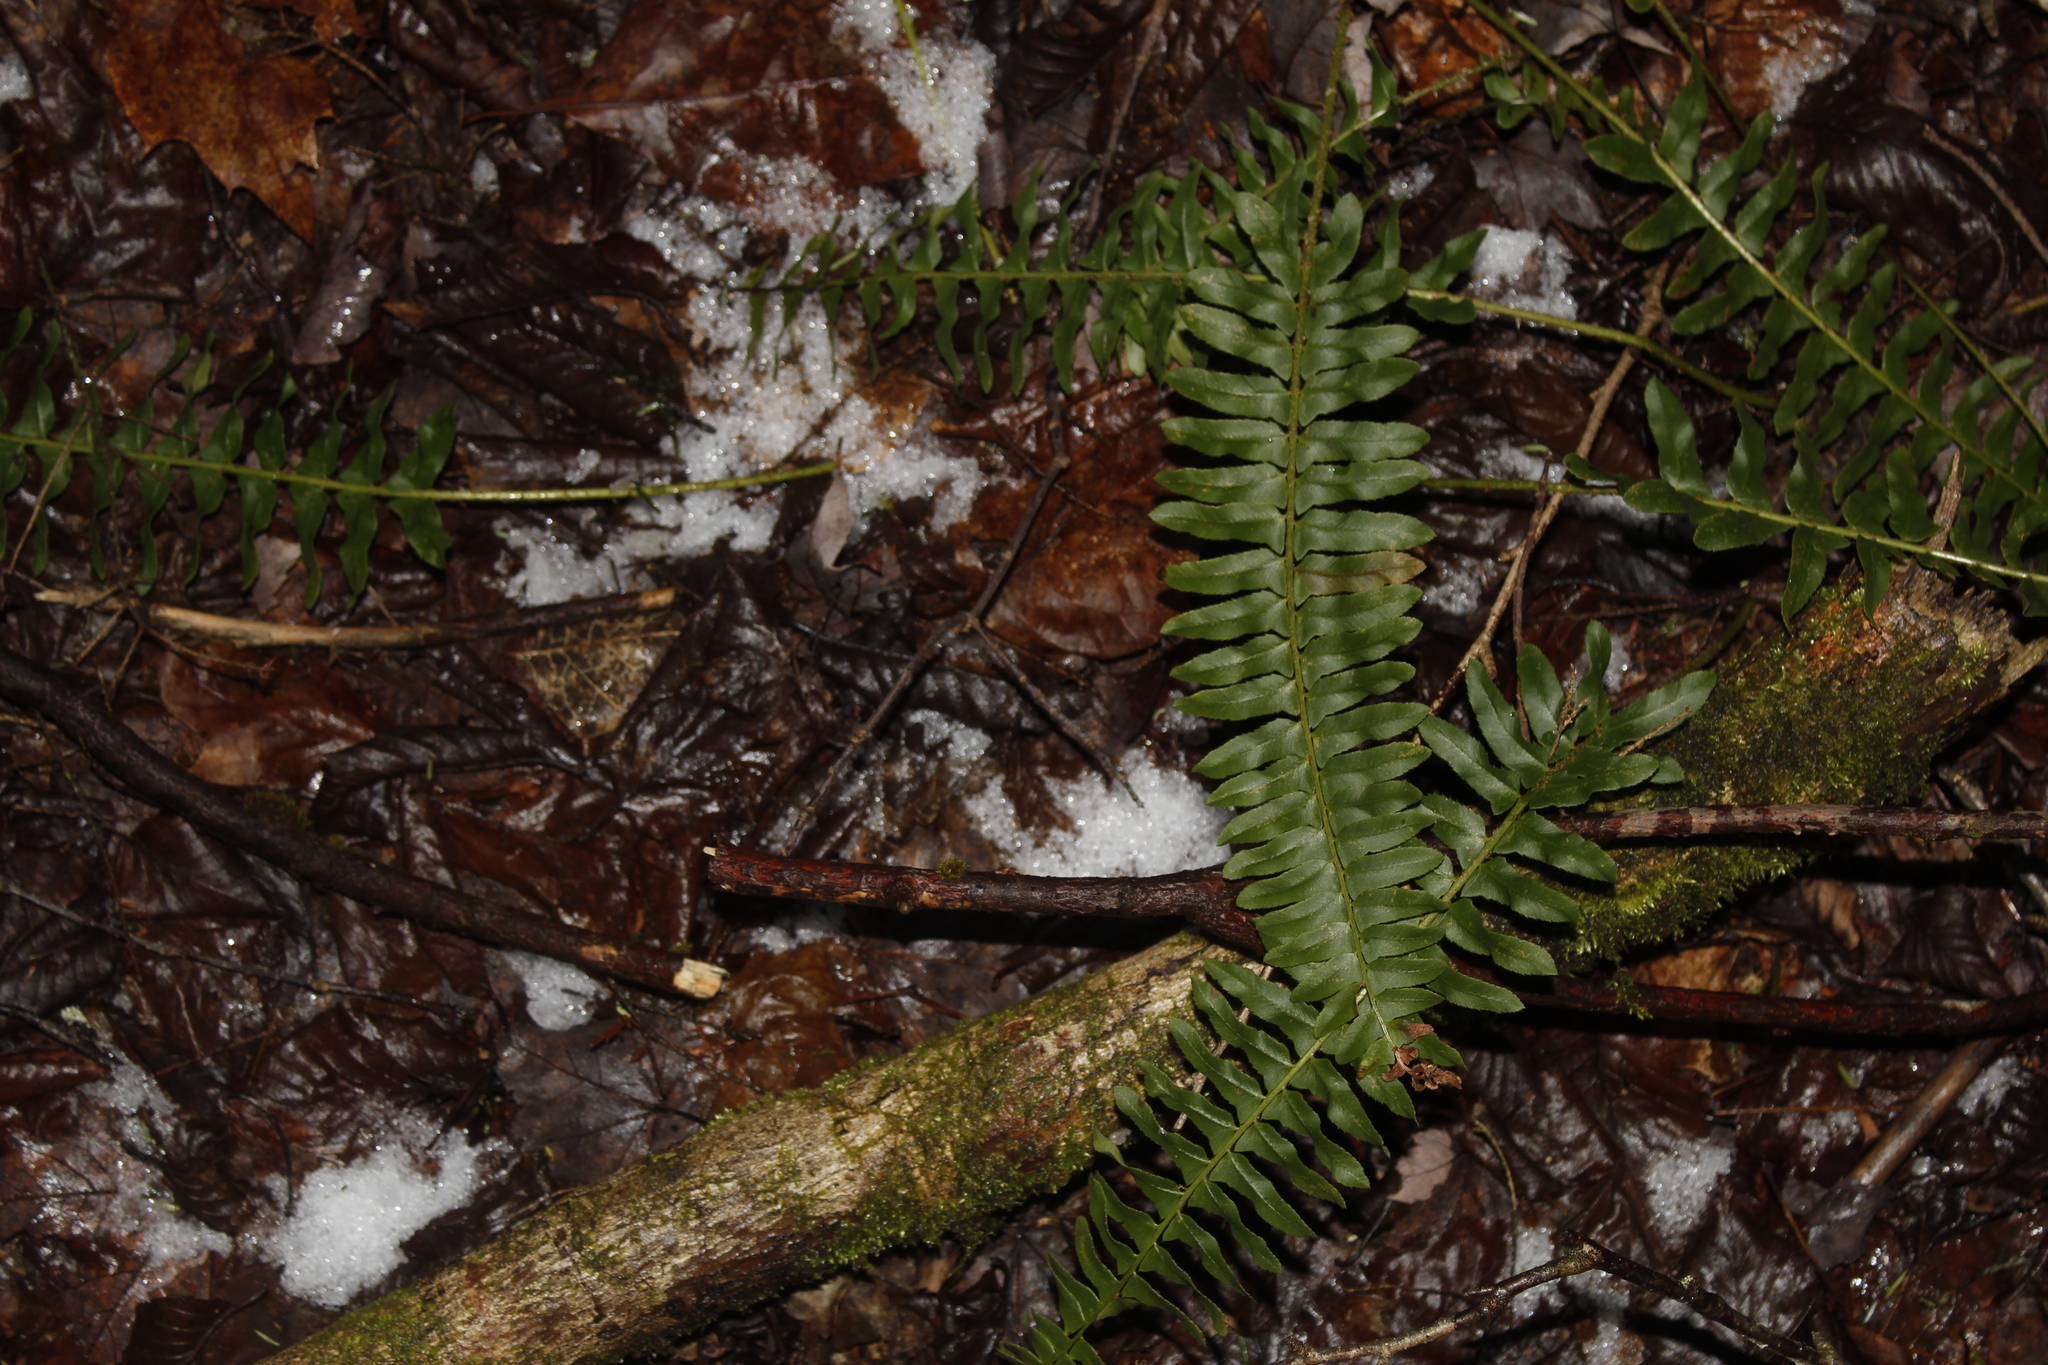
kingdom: Plantae
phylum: Tracheophyta
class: Polypodiopsida
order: Polypodiales
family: Dryopteridaceae
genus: Polystichum
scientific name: Polystichum acrostichoides
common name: Christmas fern
